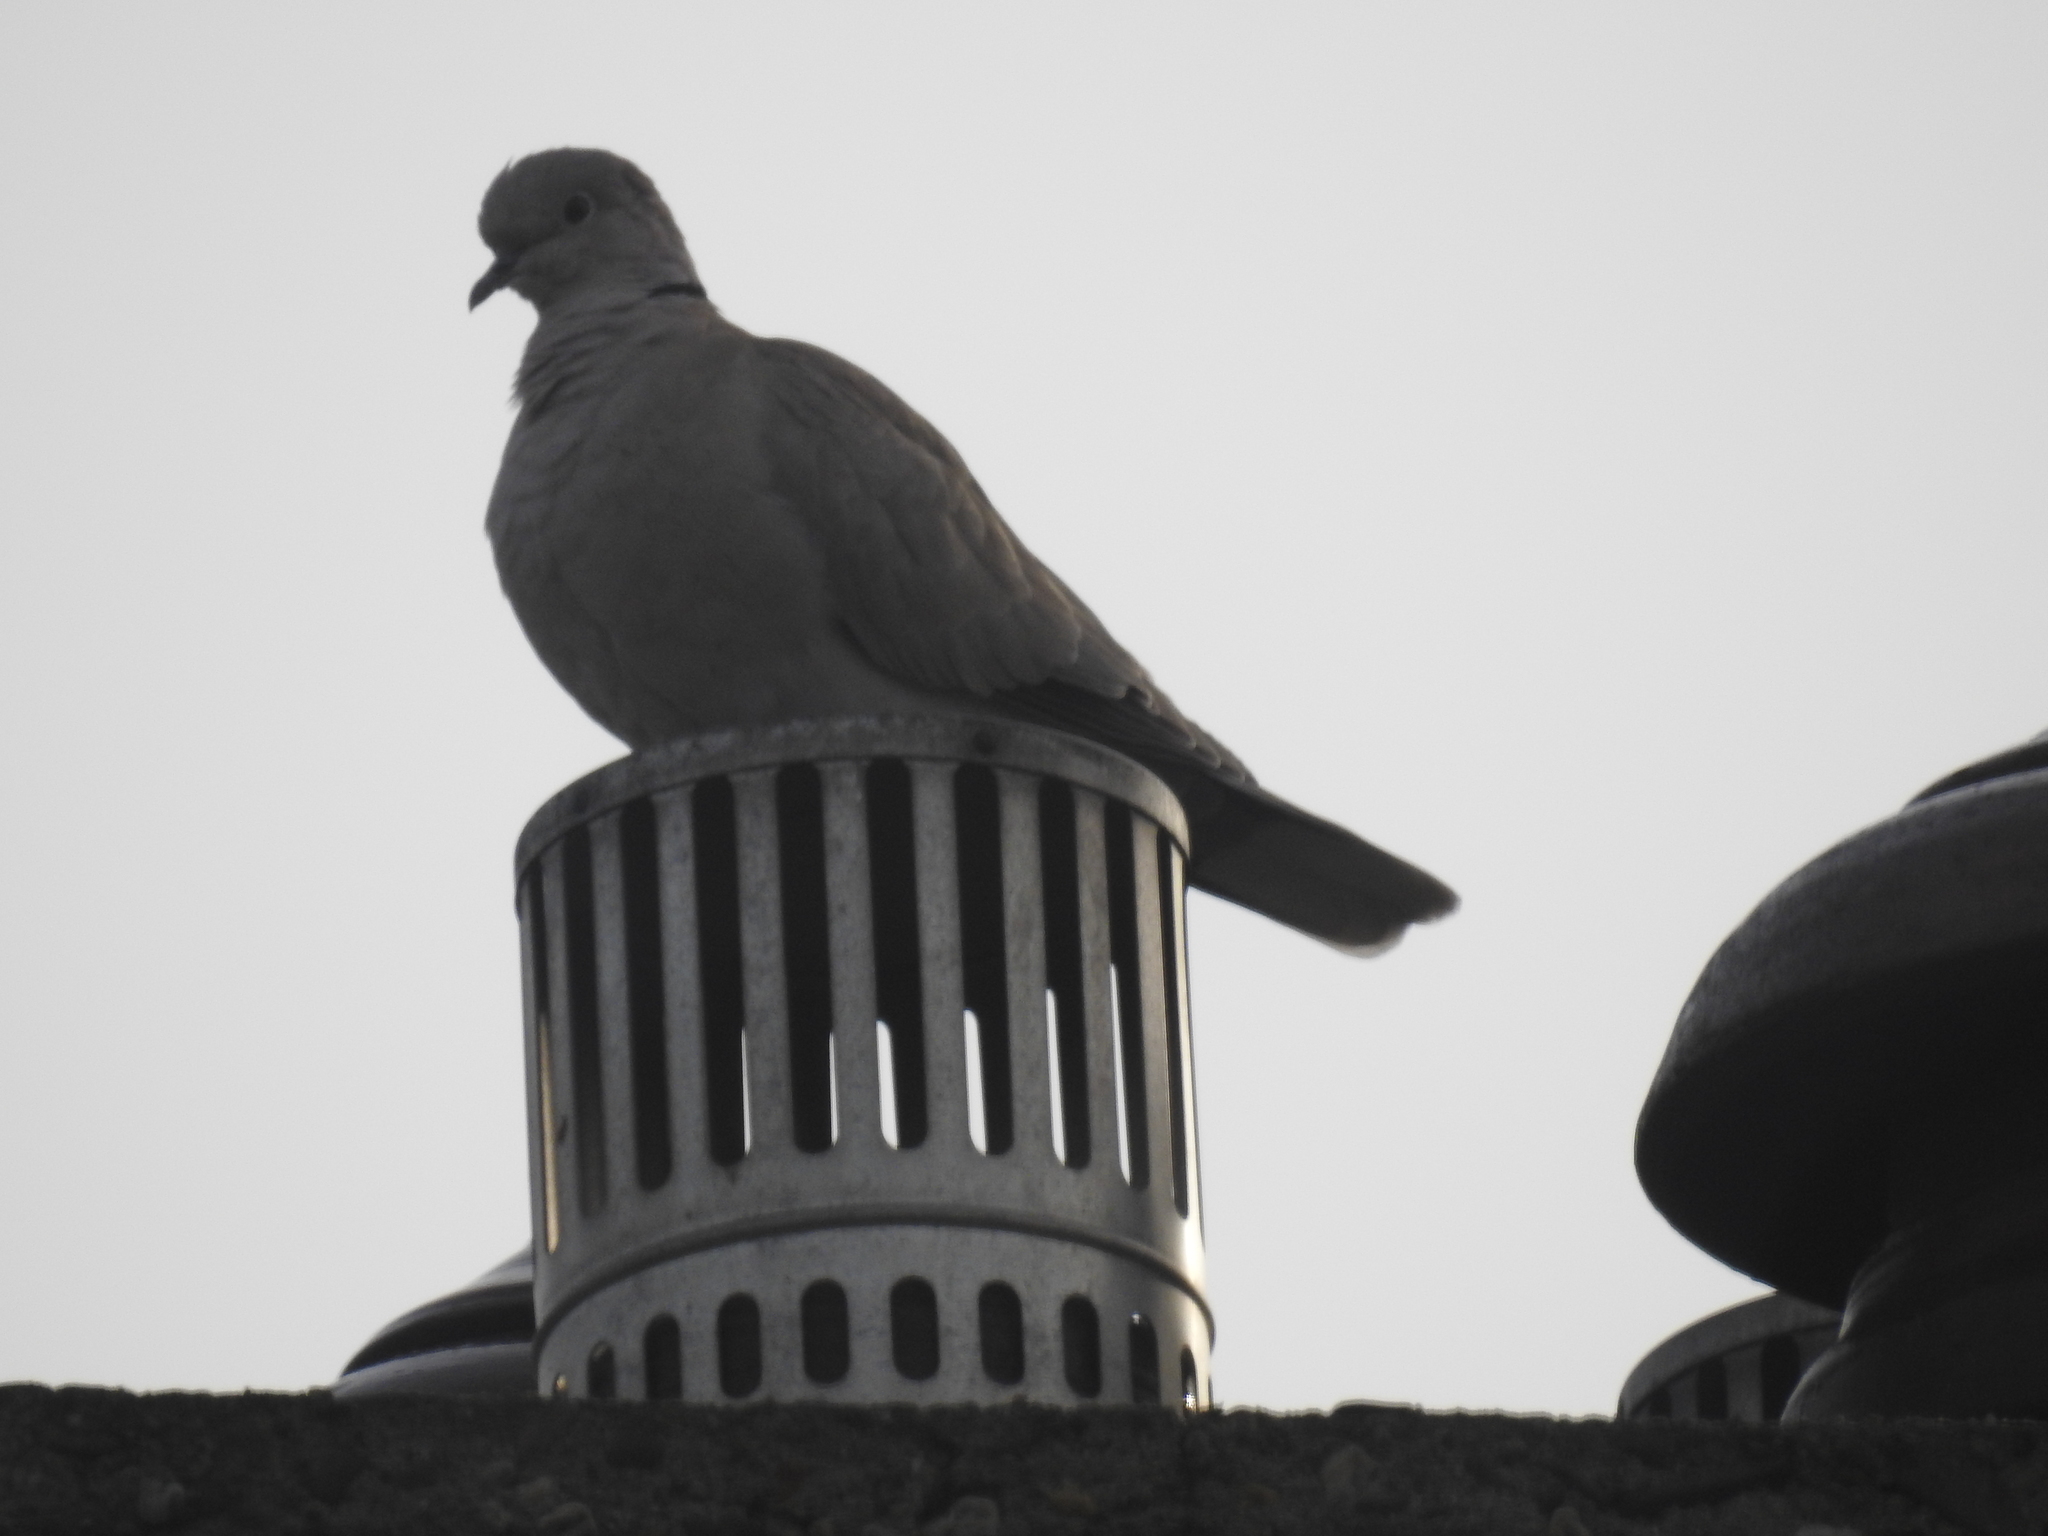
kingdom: Animalia
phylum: Chordata
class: Aves
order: Columbiformes
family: Columbidae
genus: Streptopelia
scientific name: Streptopelia decaocto
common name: Eurasian collared dove
